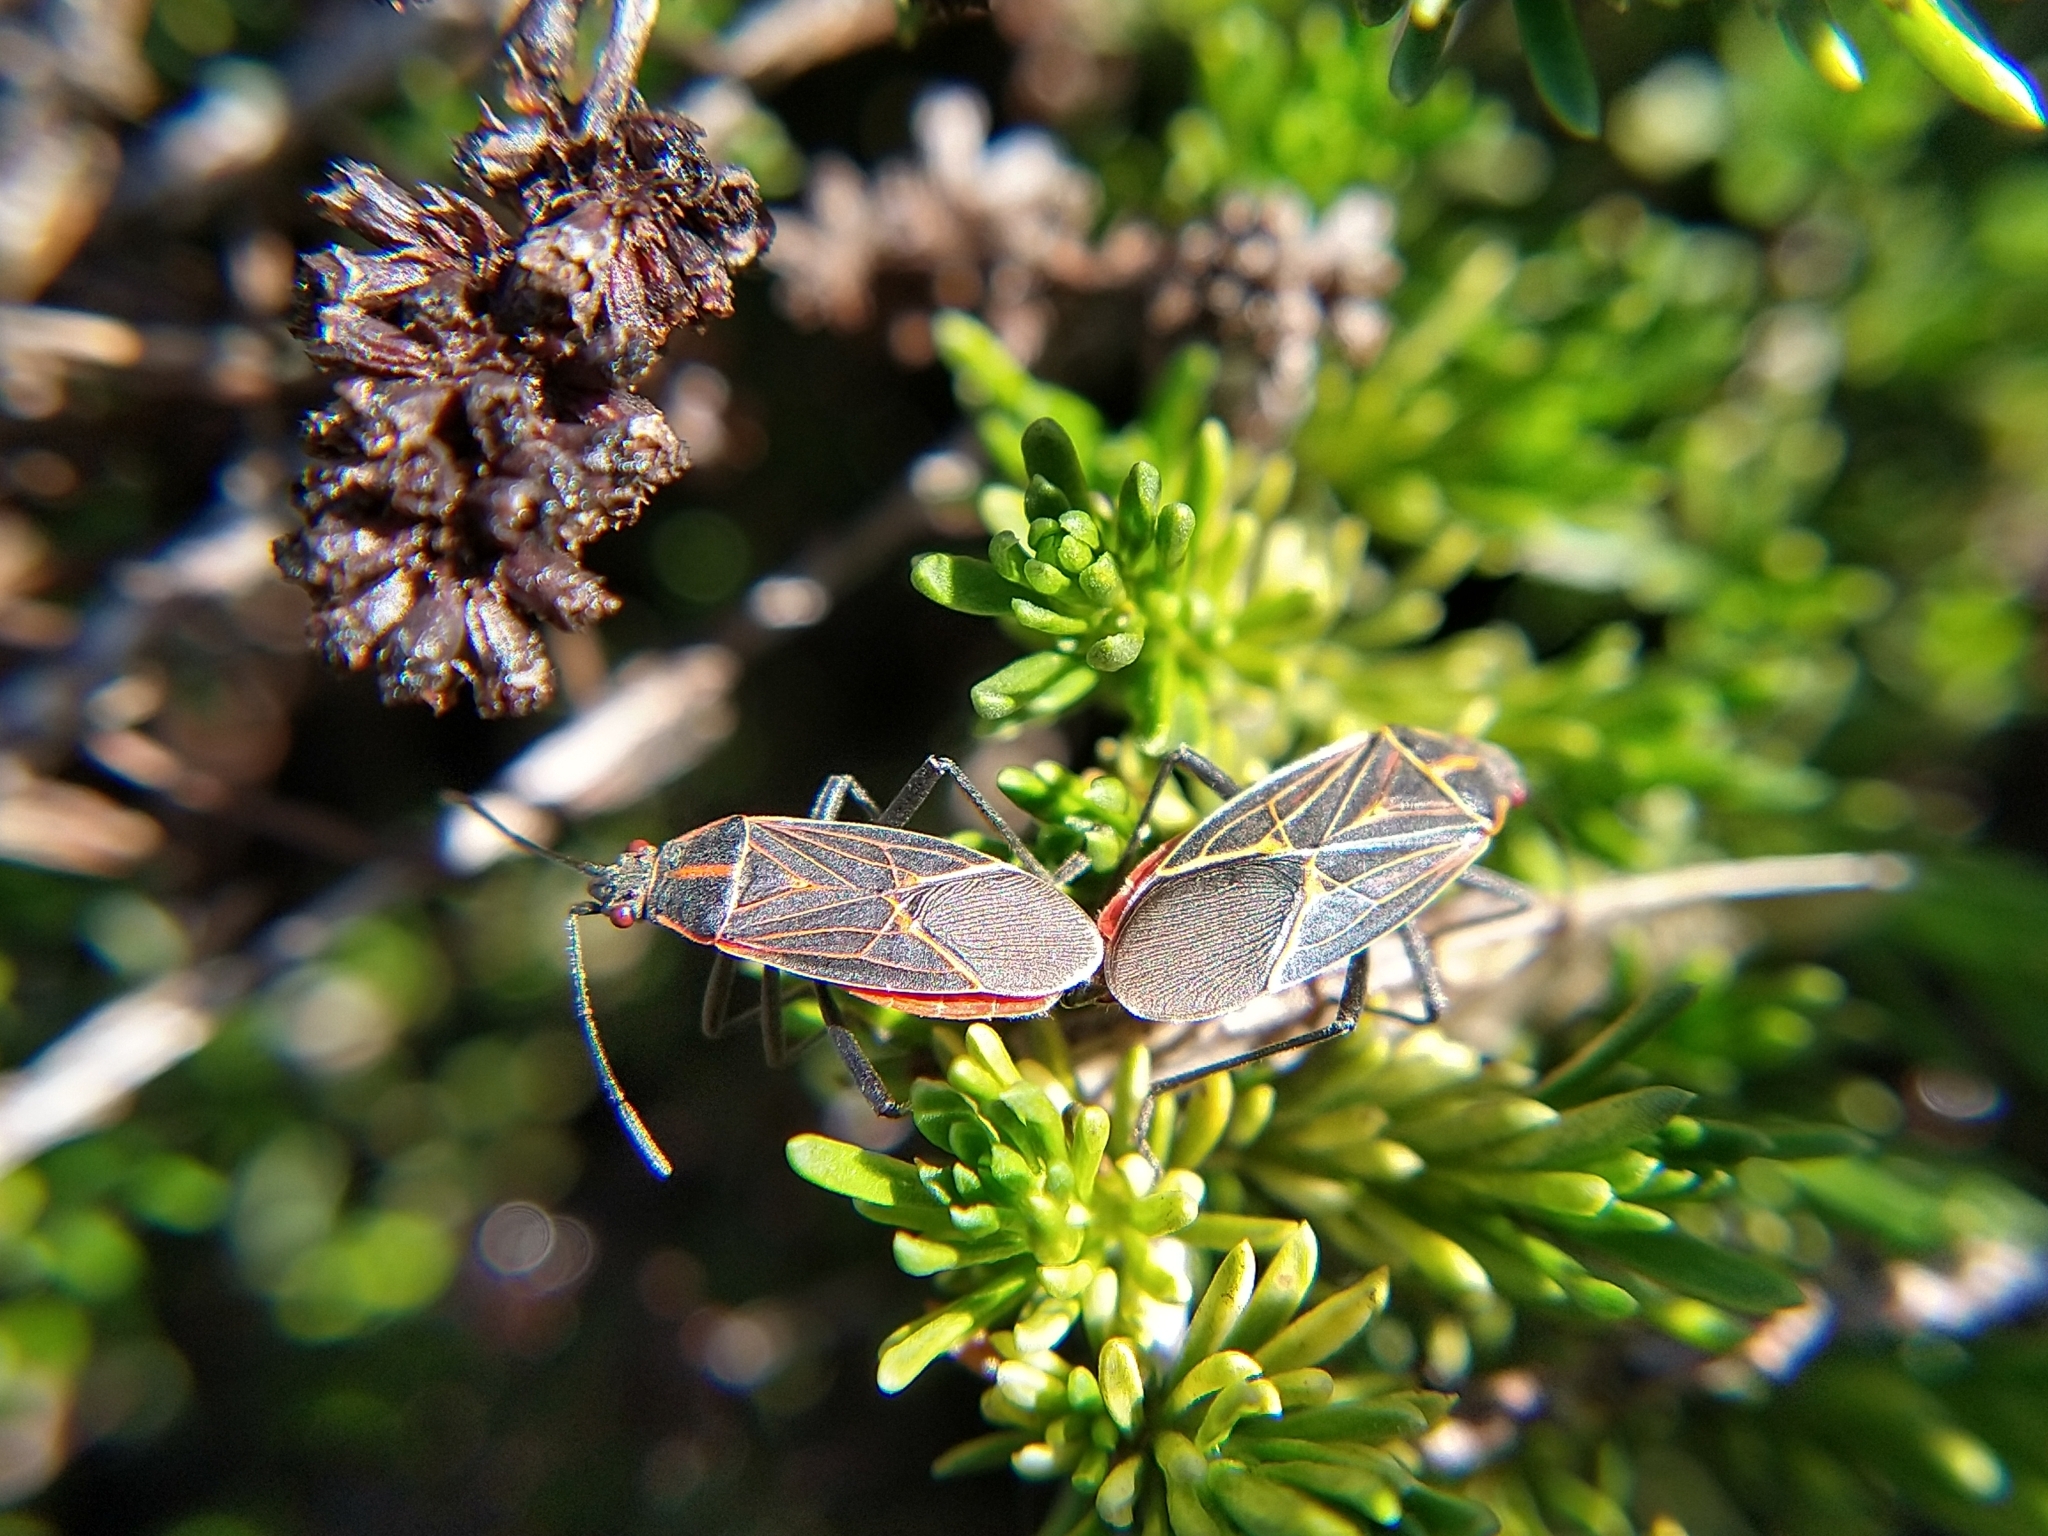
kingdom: Animalia
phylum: Arthropoda
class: Insecta
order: Hemiptera
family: Rhopalidae
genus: Boisea
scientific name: Boisea rubrolineata
